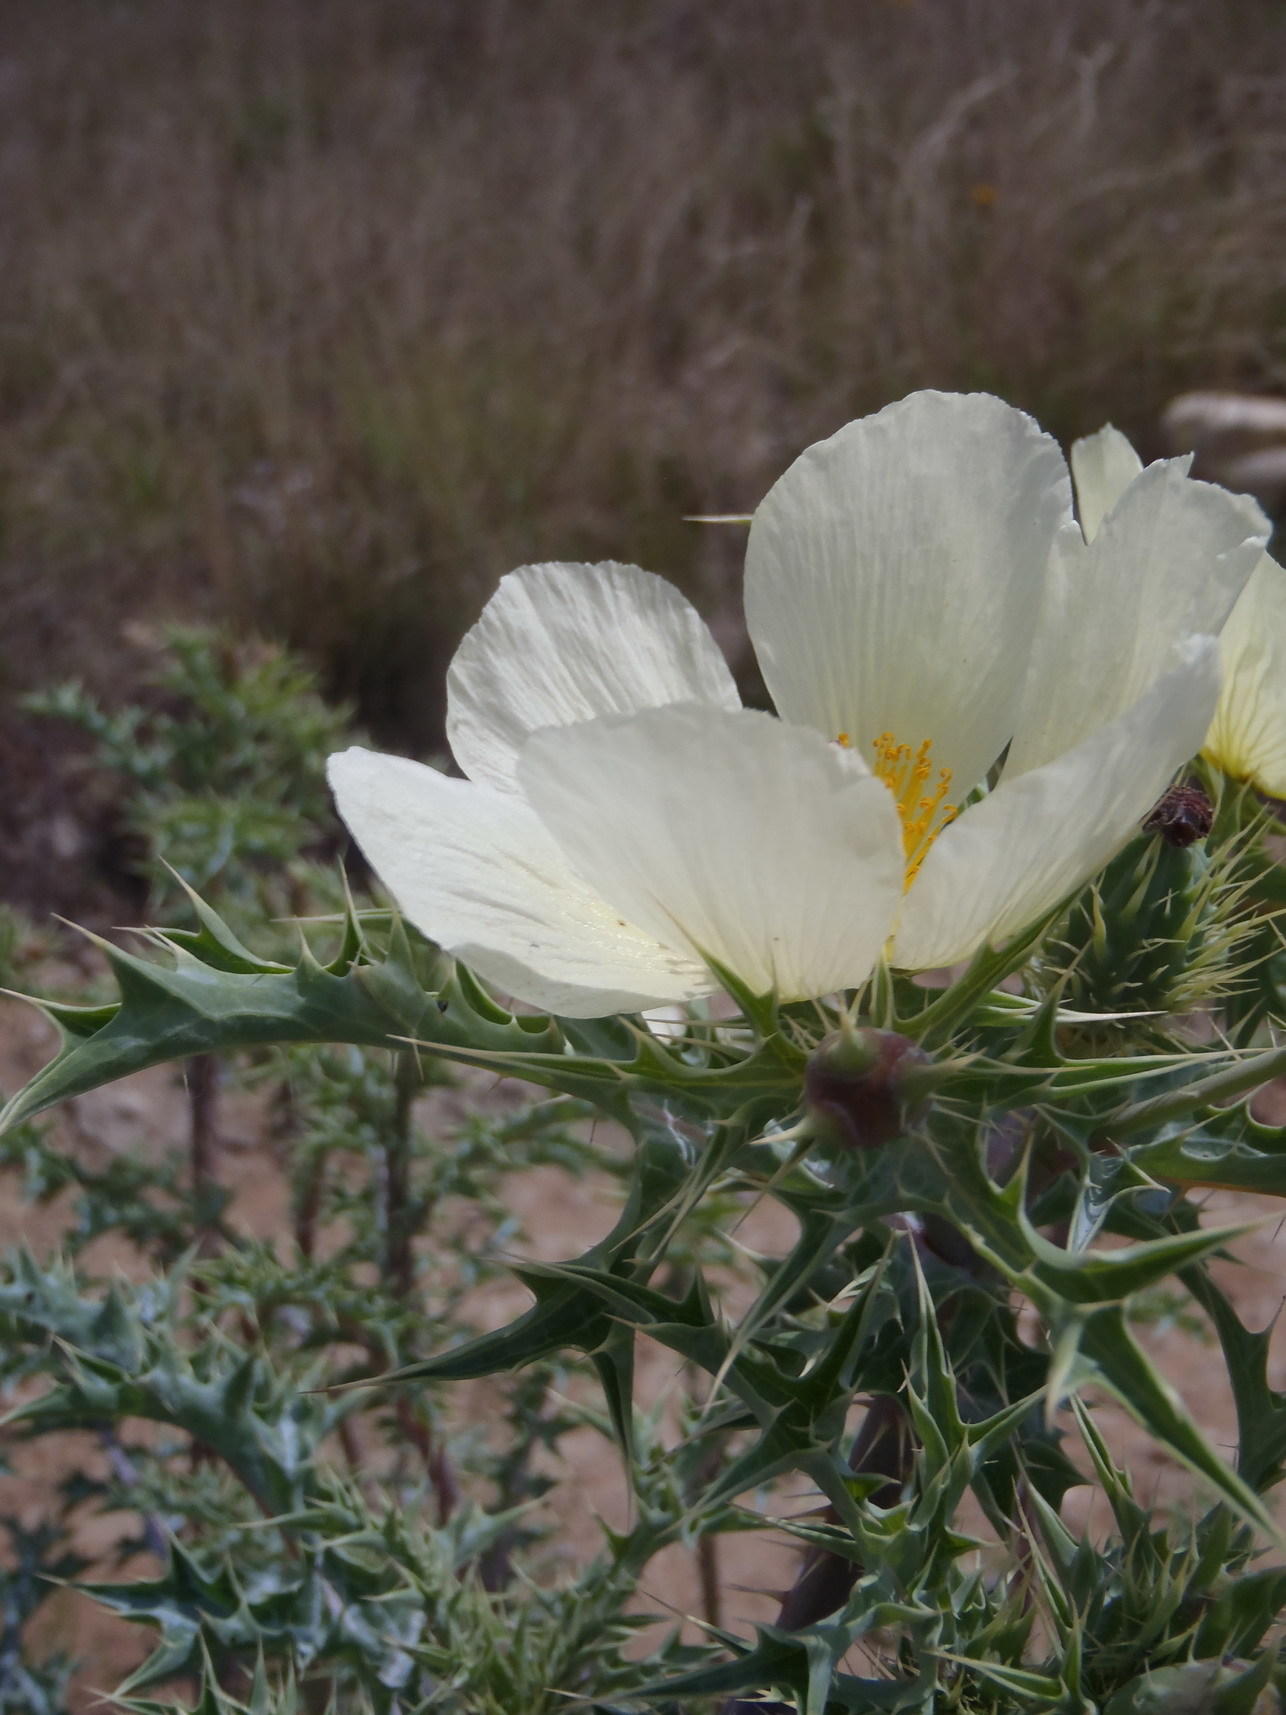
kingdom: Plantae
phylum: Tracheophyta
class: Magnoliopsida
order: Ranunculales
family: Papaveraceae
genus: Argemone
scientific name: Argemone ochroleuca
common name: White-flower mexican-poppy
